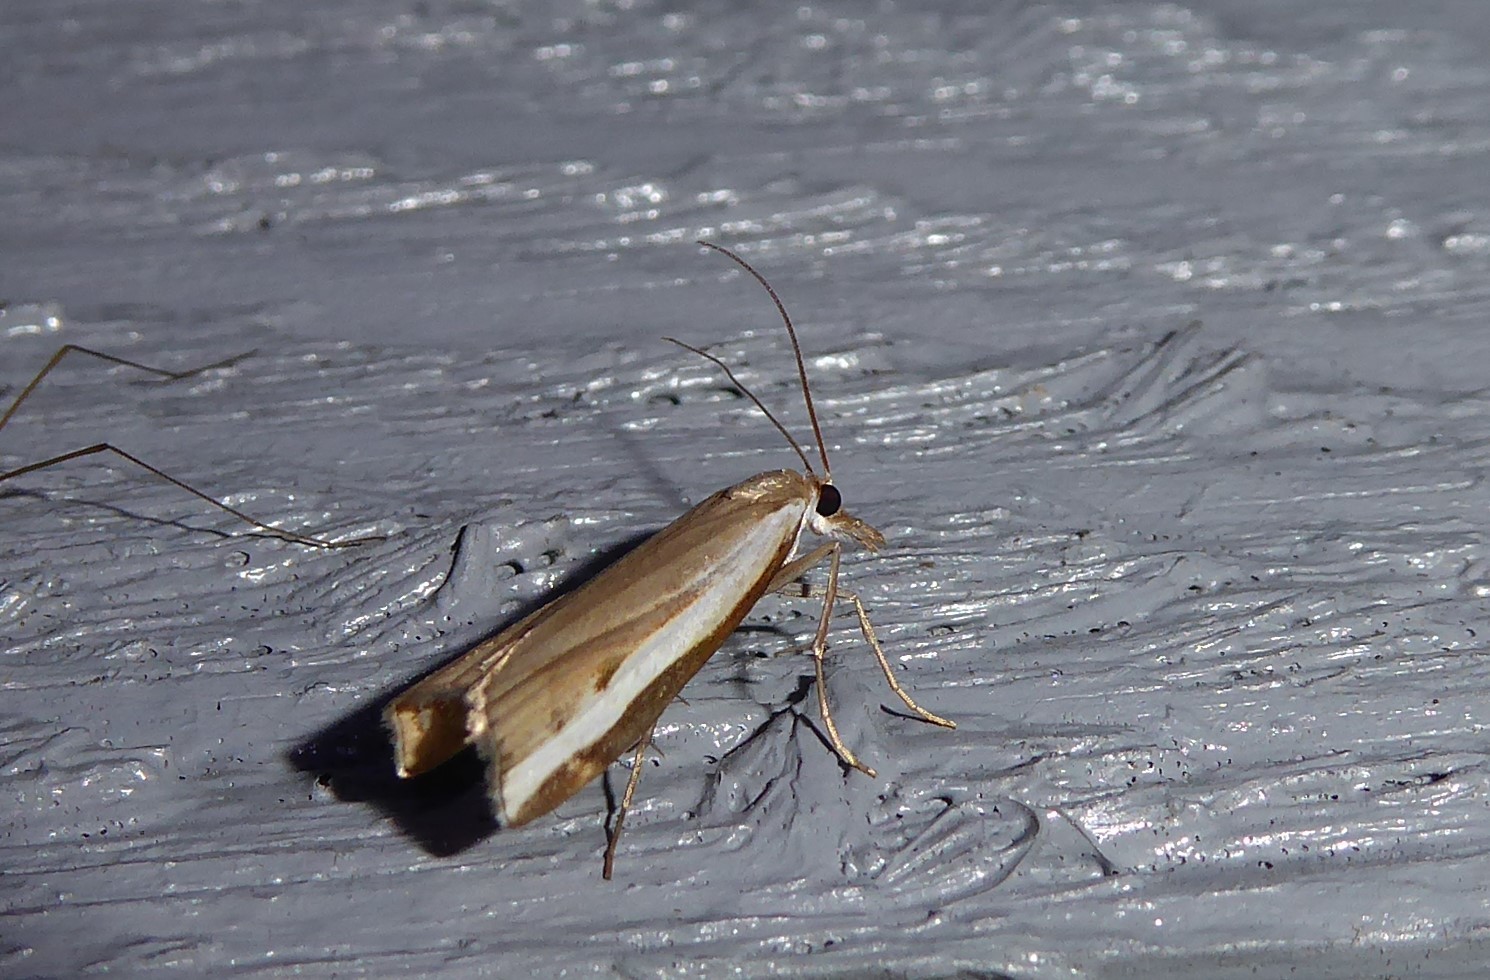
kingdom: Animalia
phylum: Arthropoda
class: Insecta
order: Lepidoptera
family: Crambidae
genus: Orocrambus
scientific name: Orocrambus flexuosellus
